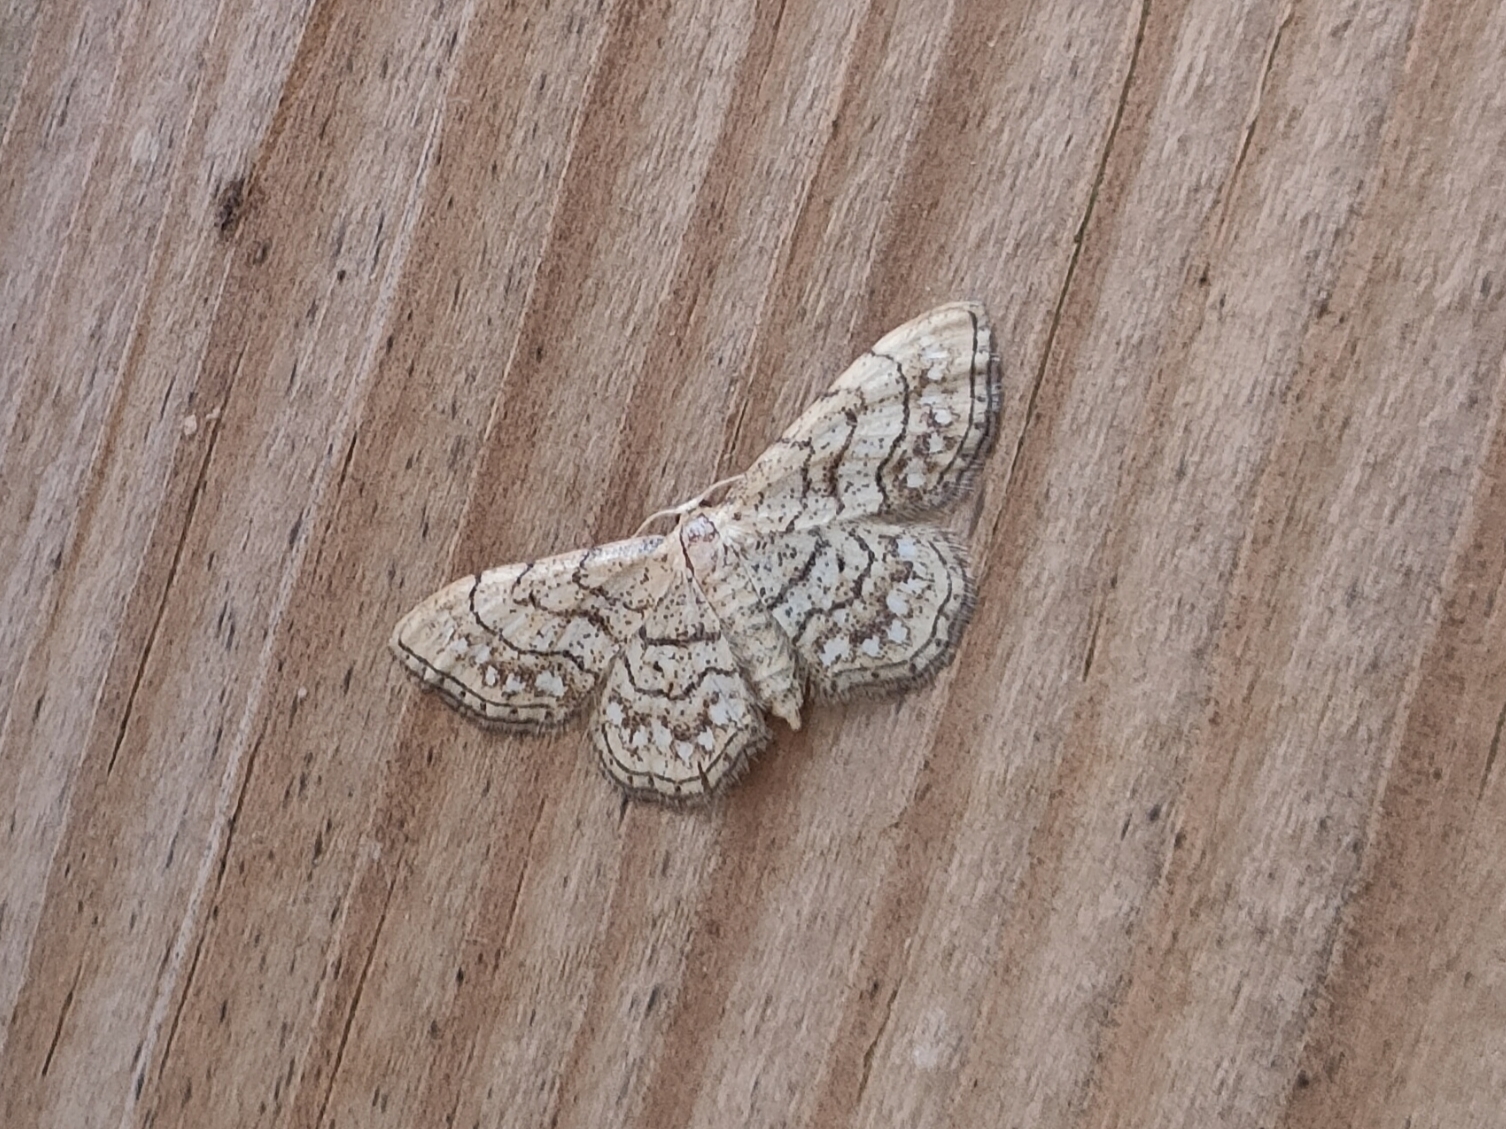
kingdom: Animalia
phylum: Arthropoda
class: Insecta
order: Lepidoptera
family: Geometridae
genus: Idaea
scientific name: Idaea moniliata
